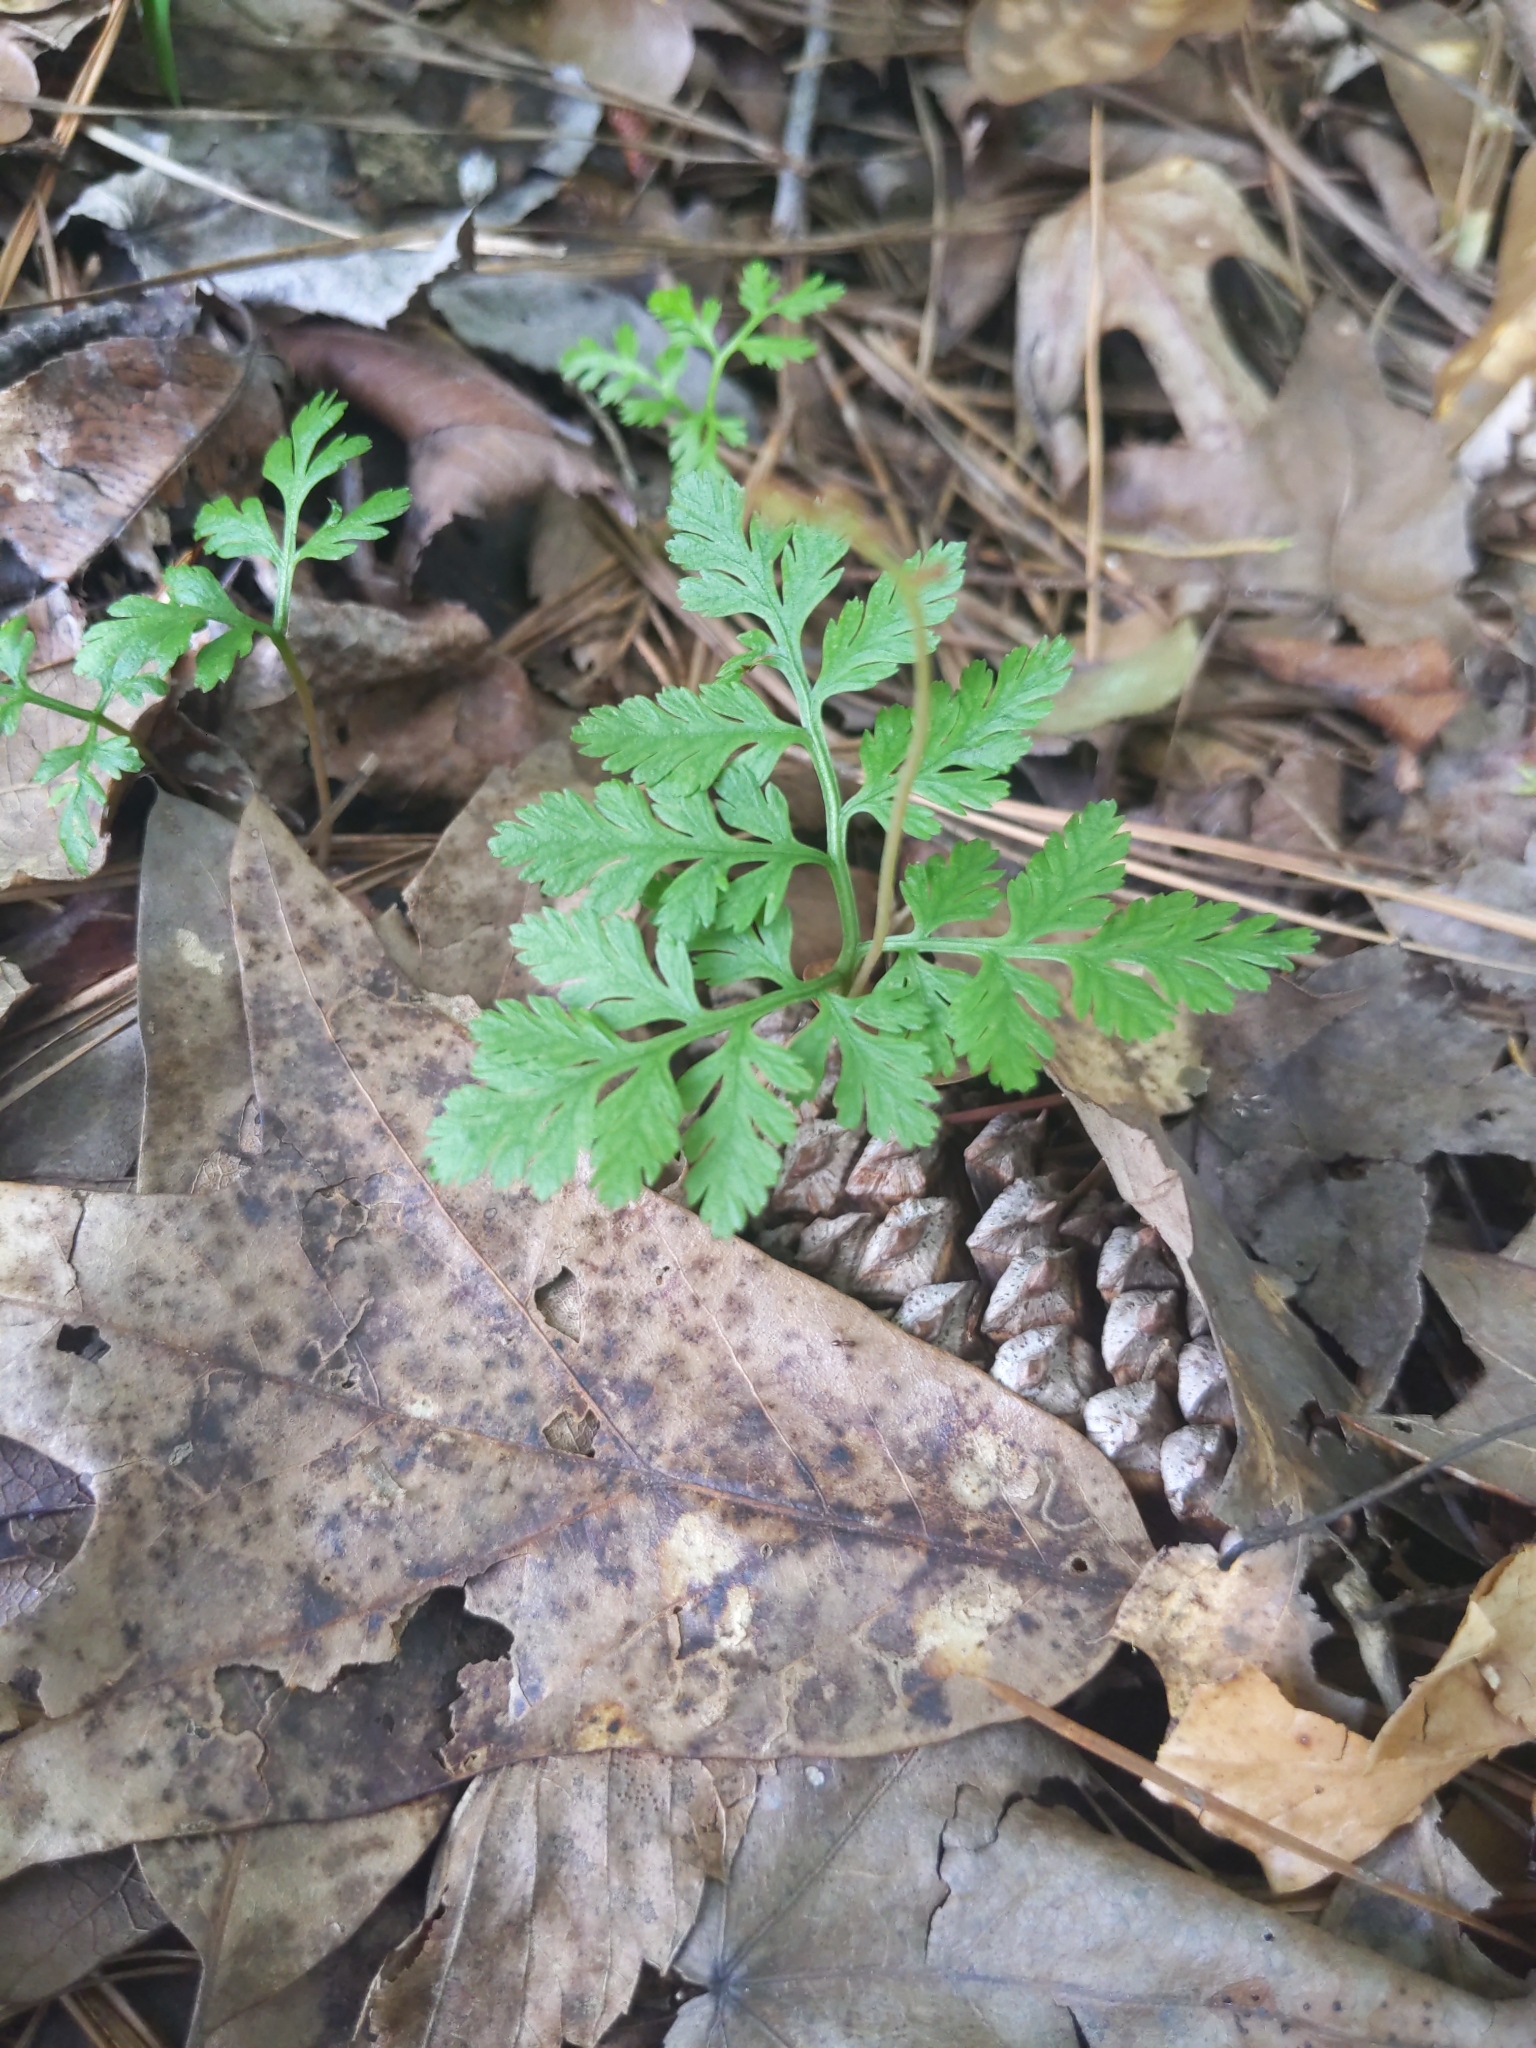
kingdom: Plantae
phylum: Tracheophyta
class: Polypodiopsida
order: Ophioglossales
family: Ophioglossaceae
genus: Botrypus
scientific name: Botrypus virginianus
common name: Common grapefern
